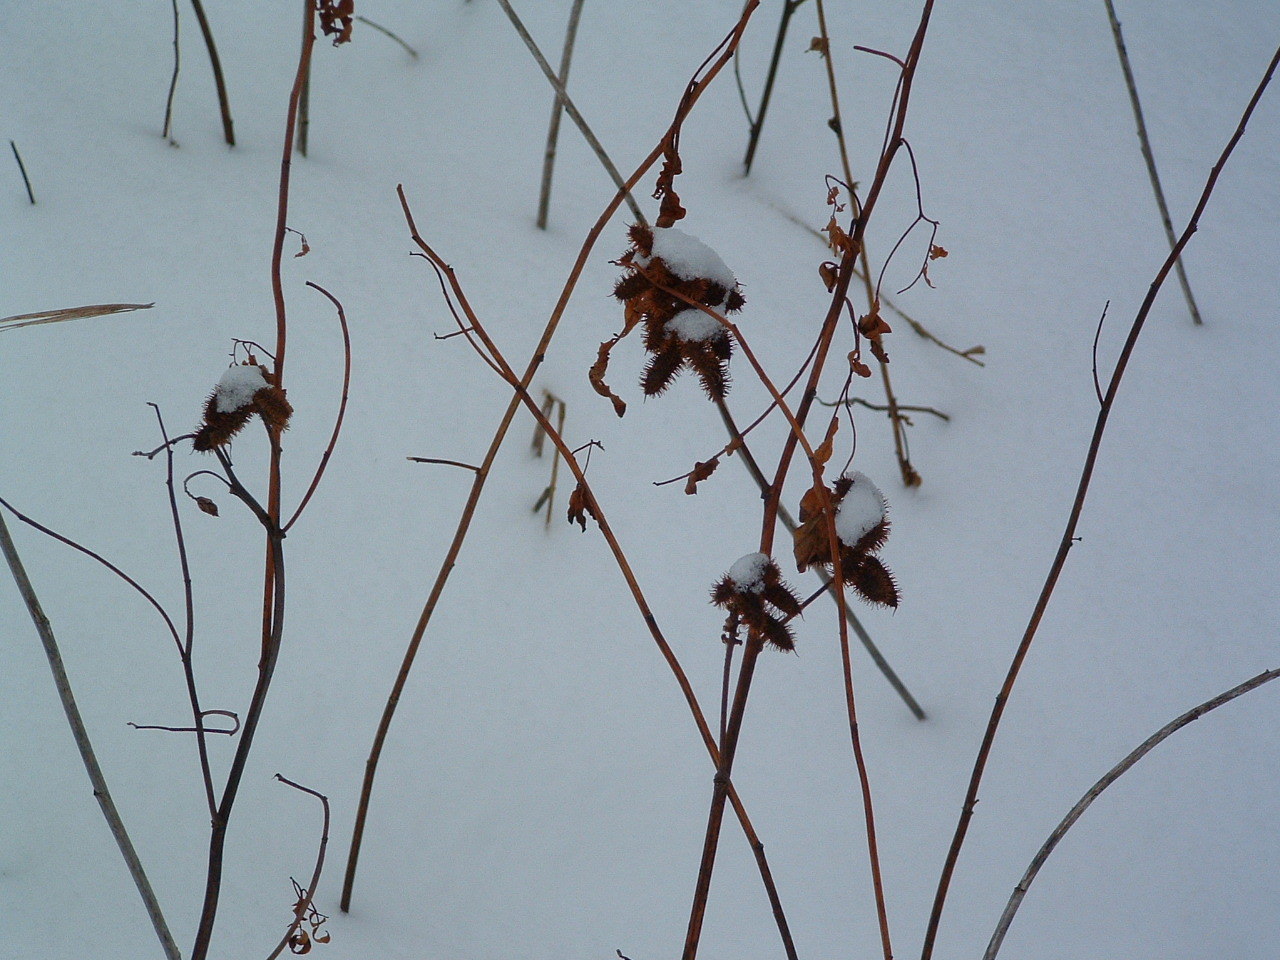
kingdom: Plantae
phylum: Tracheophyta
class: Magnoliopsida
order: Fabales
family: Fabaceae
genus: Glycyrrhiza
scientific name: Glycyrrhiza lepidota
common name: American liquorice
